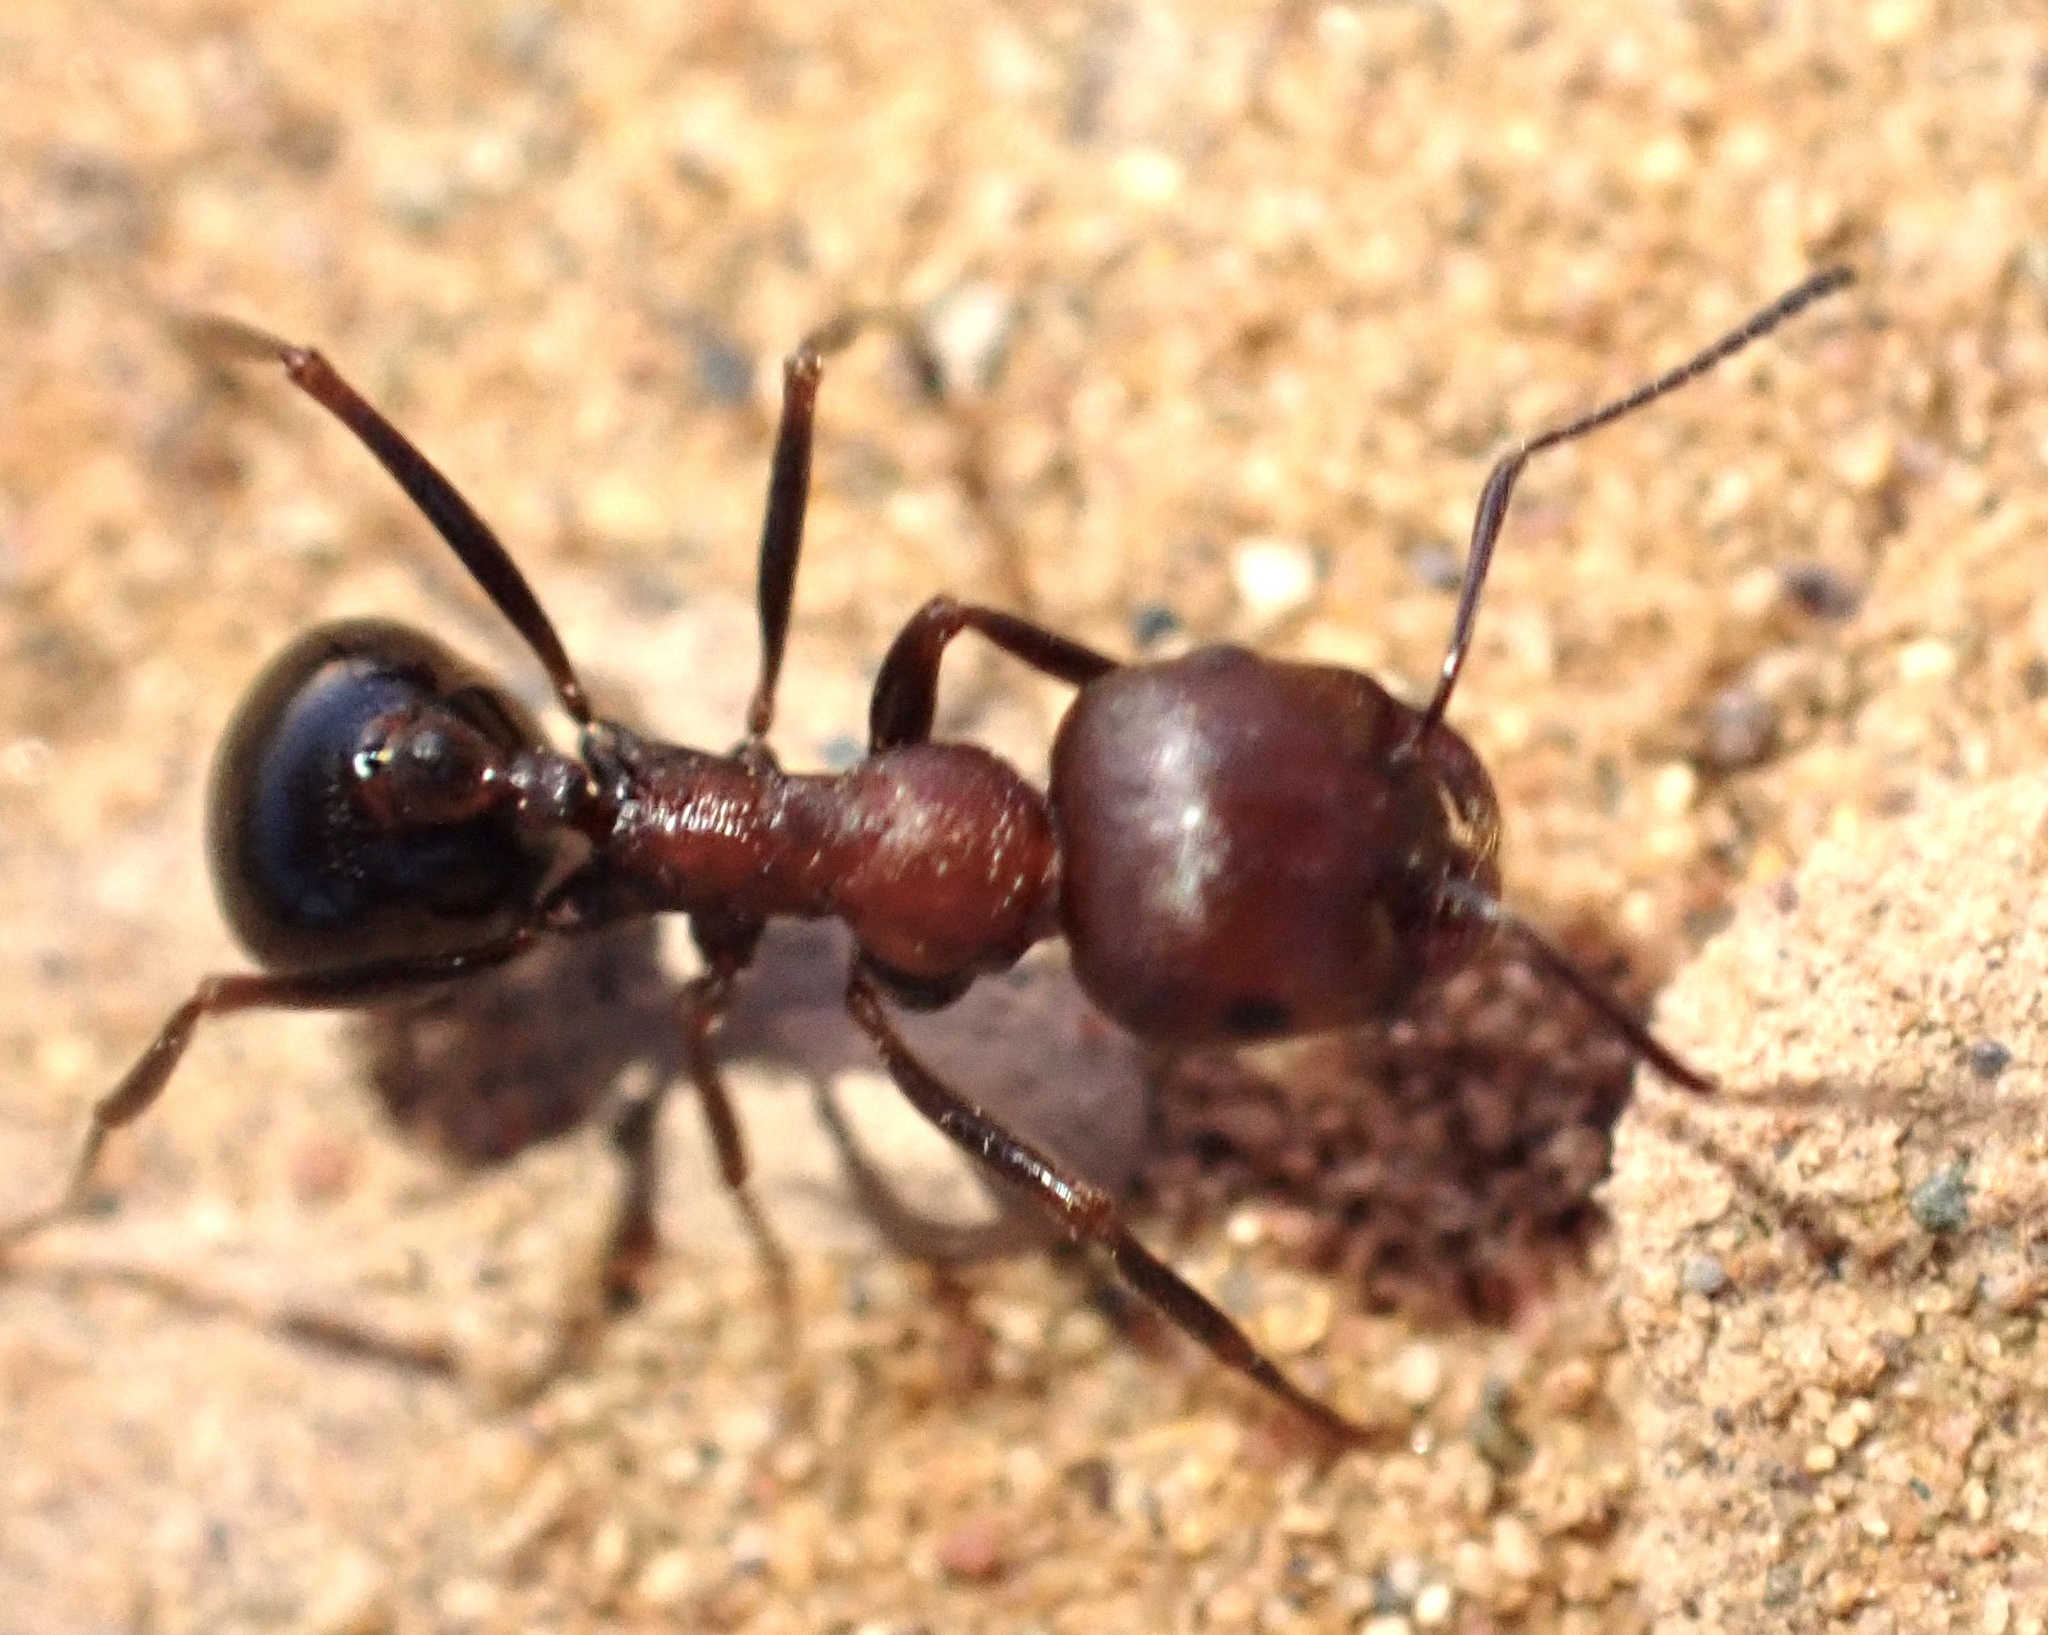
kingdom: Animalia
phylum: Arthropoda
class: Insecta
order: Hymenoptera
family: Formicidae
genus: Messor
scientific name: Messor aegyptiacus
